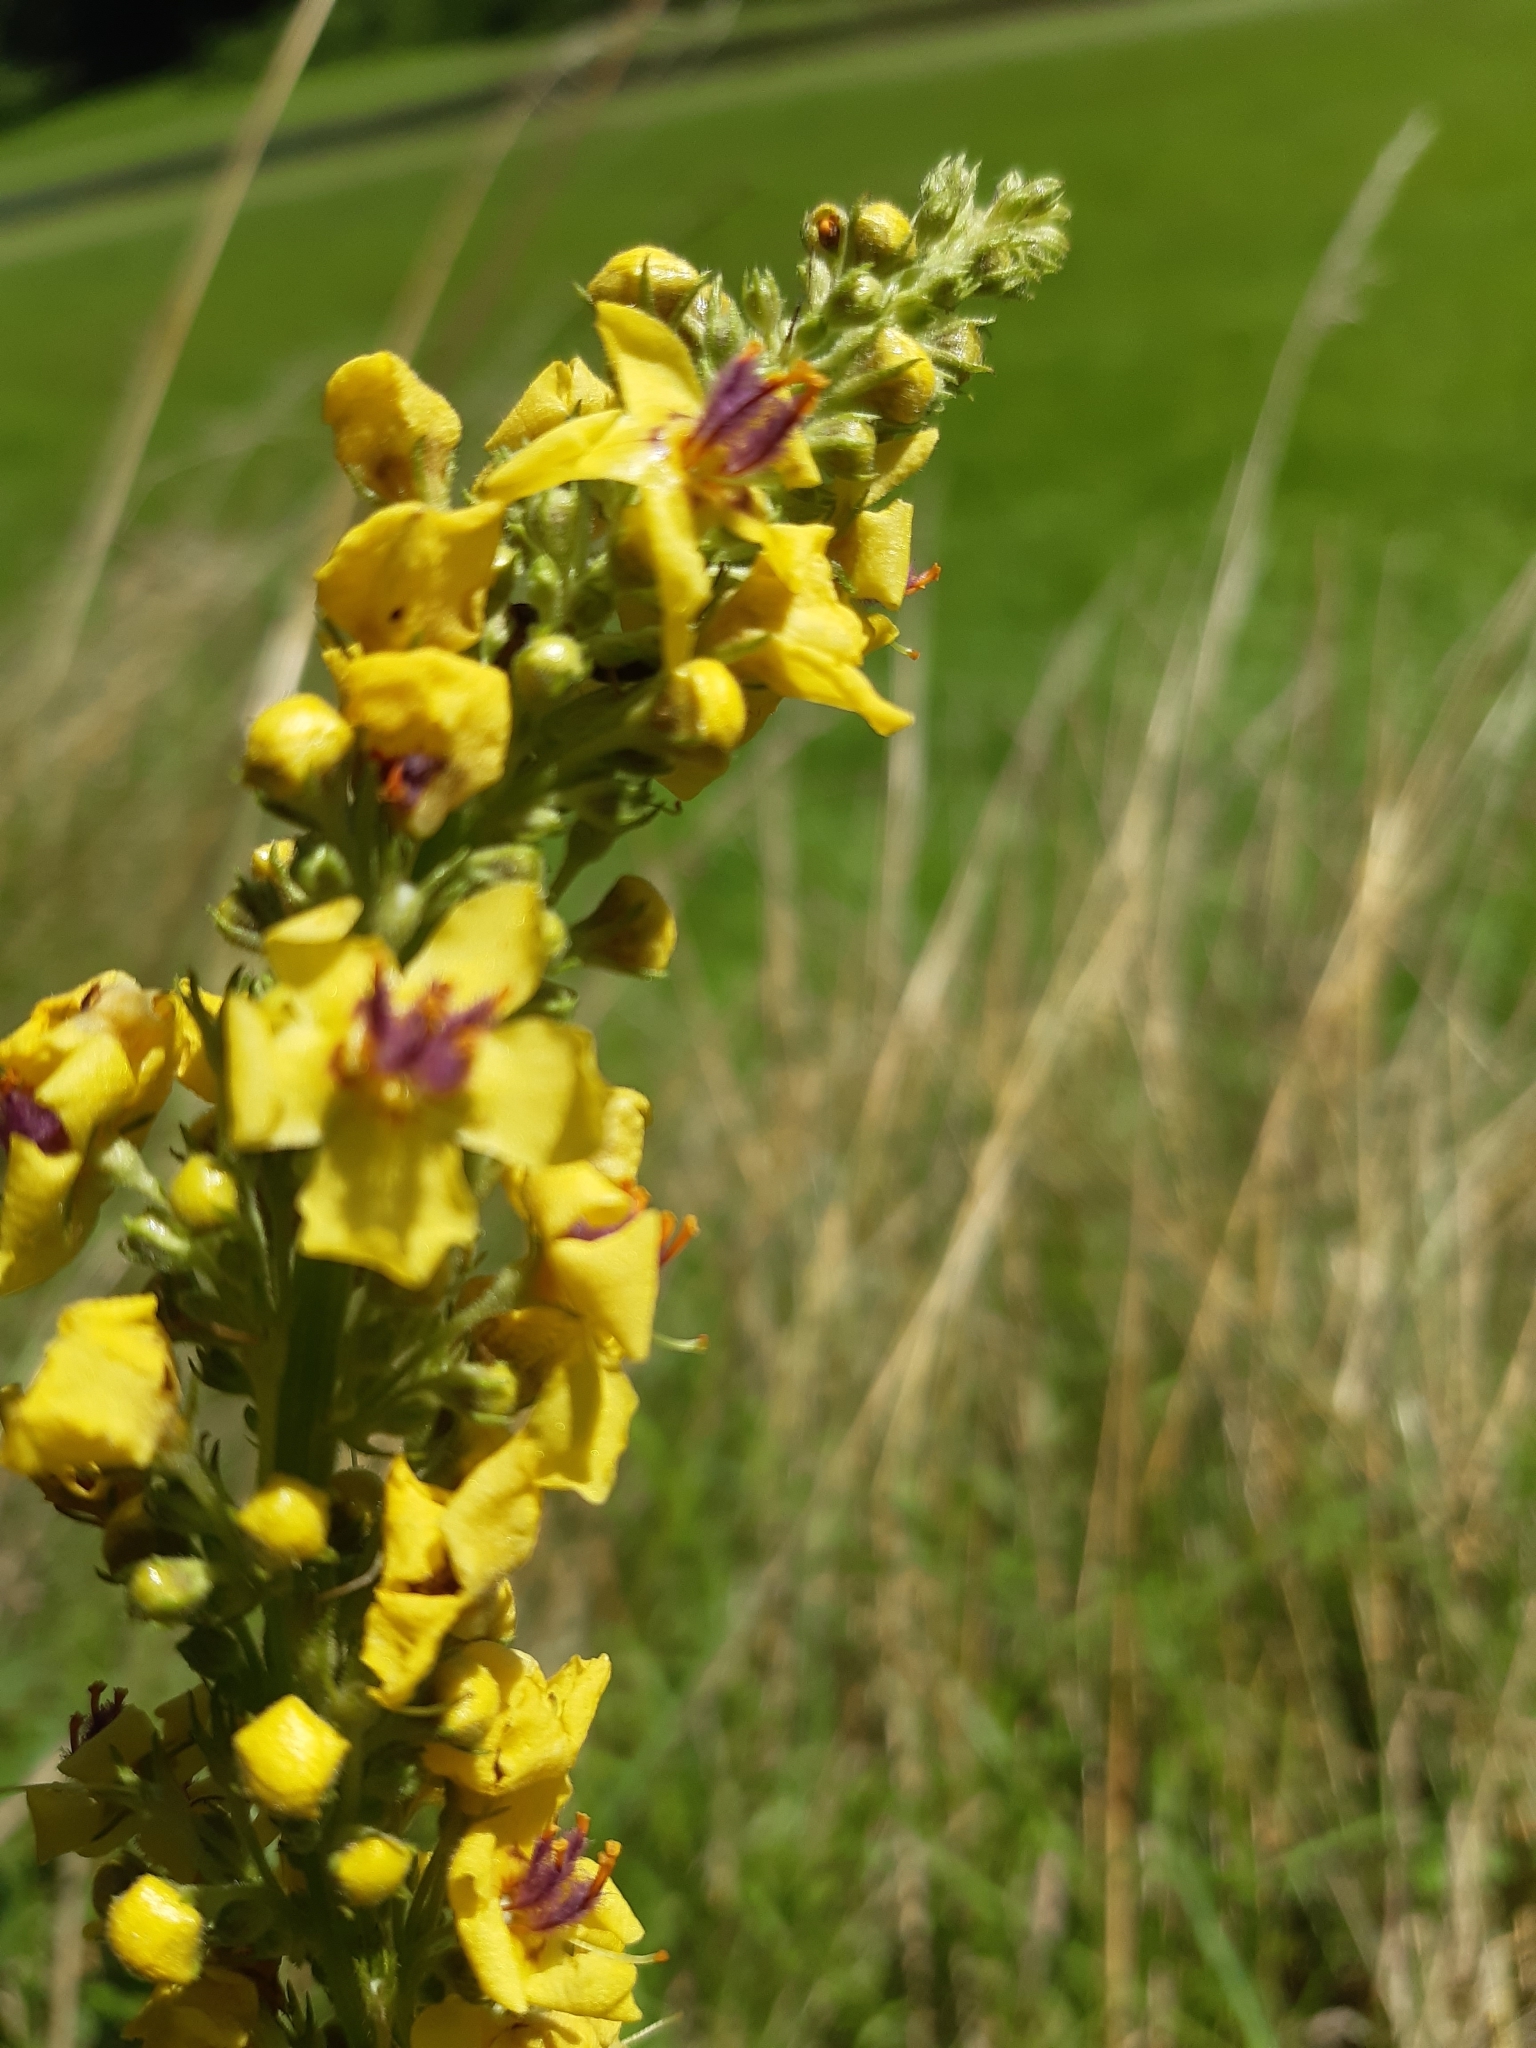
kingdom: Plantae
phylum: Tracheophyta
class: Magnoliopsida
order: Lamiales
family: Scrophulariaceae
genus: Verbascum
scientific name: Verbascum nigrum
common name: Dark mullein
